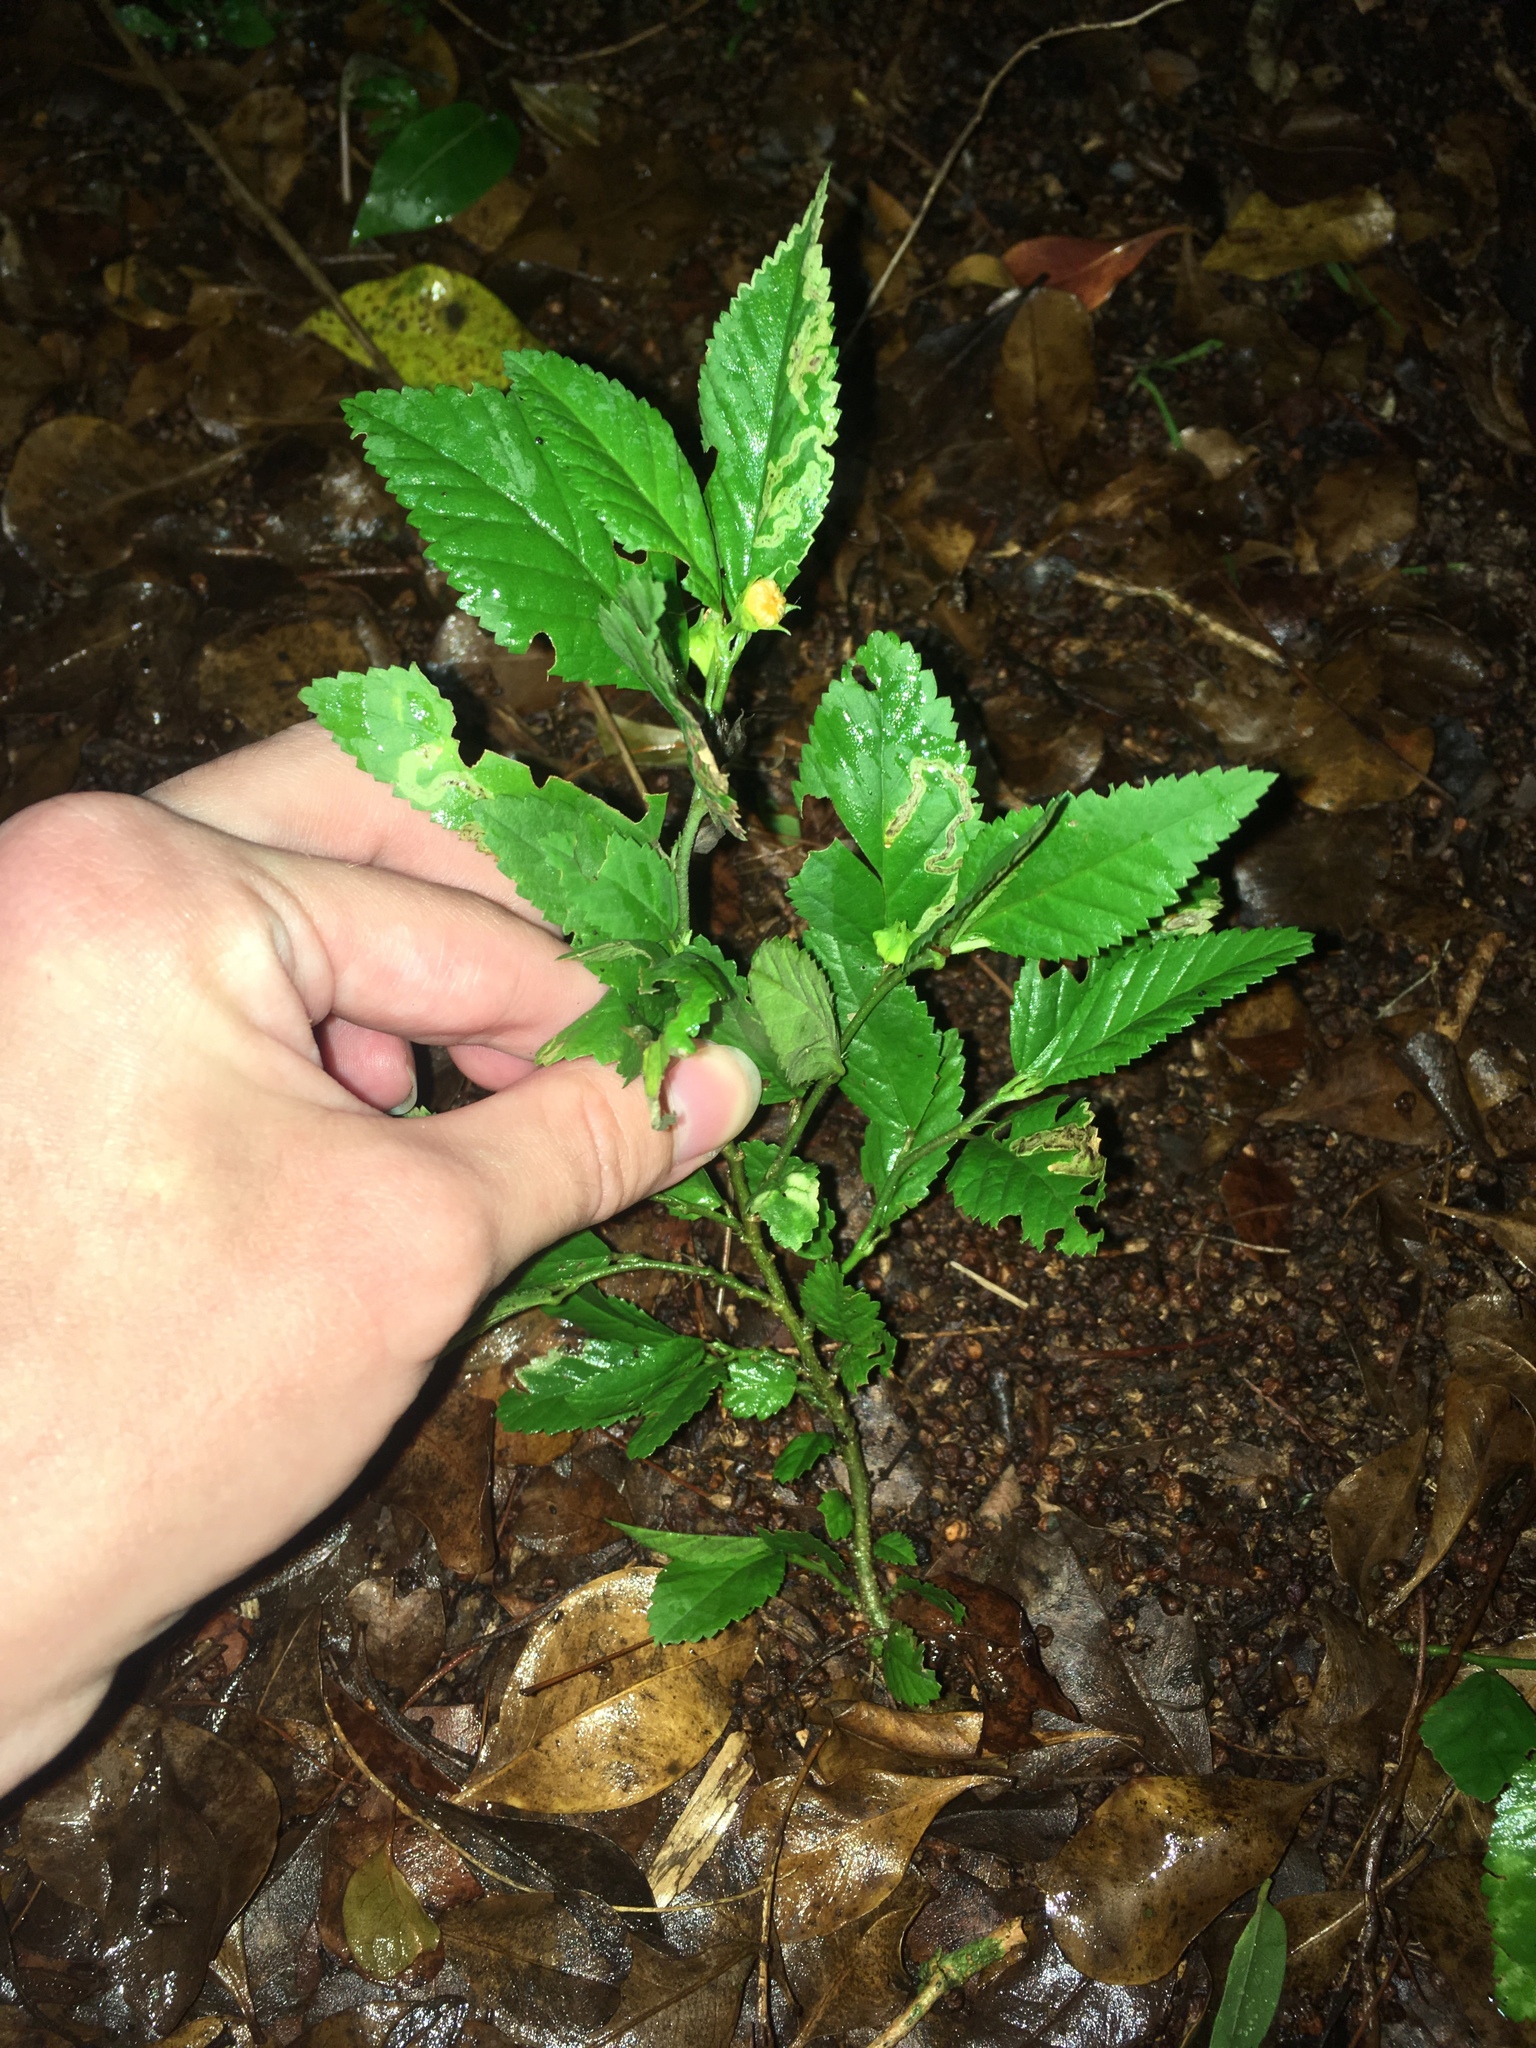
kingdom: Plantae
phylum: Tracheophyta
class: Magnoliopsida
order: Malvales
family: Malvaceae
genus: Sida
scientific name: Sida ulmifolia
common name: Broom weed
